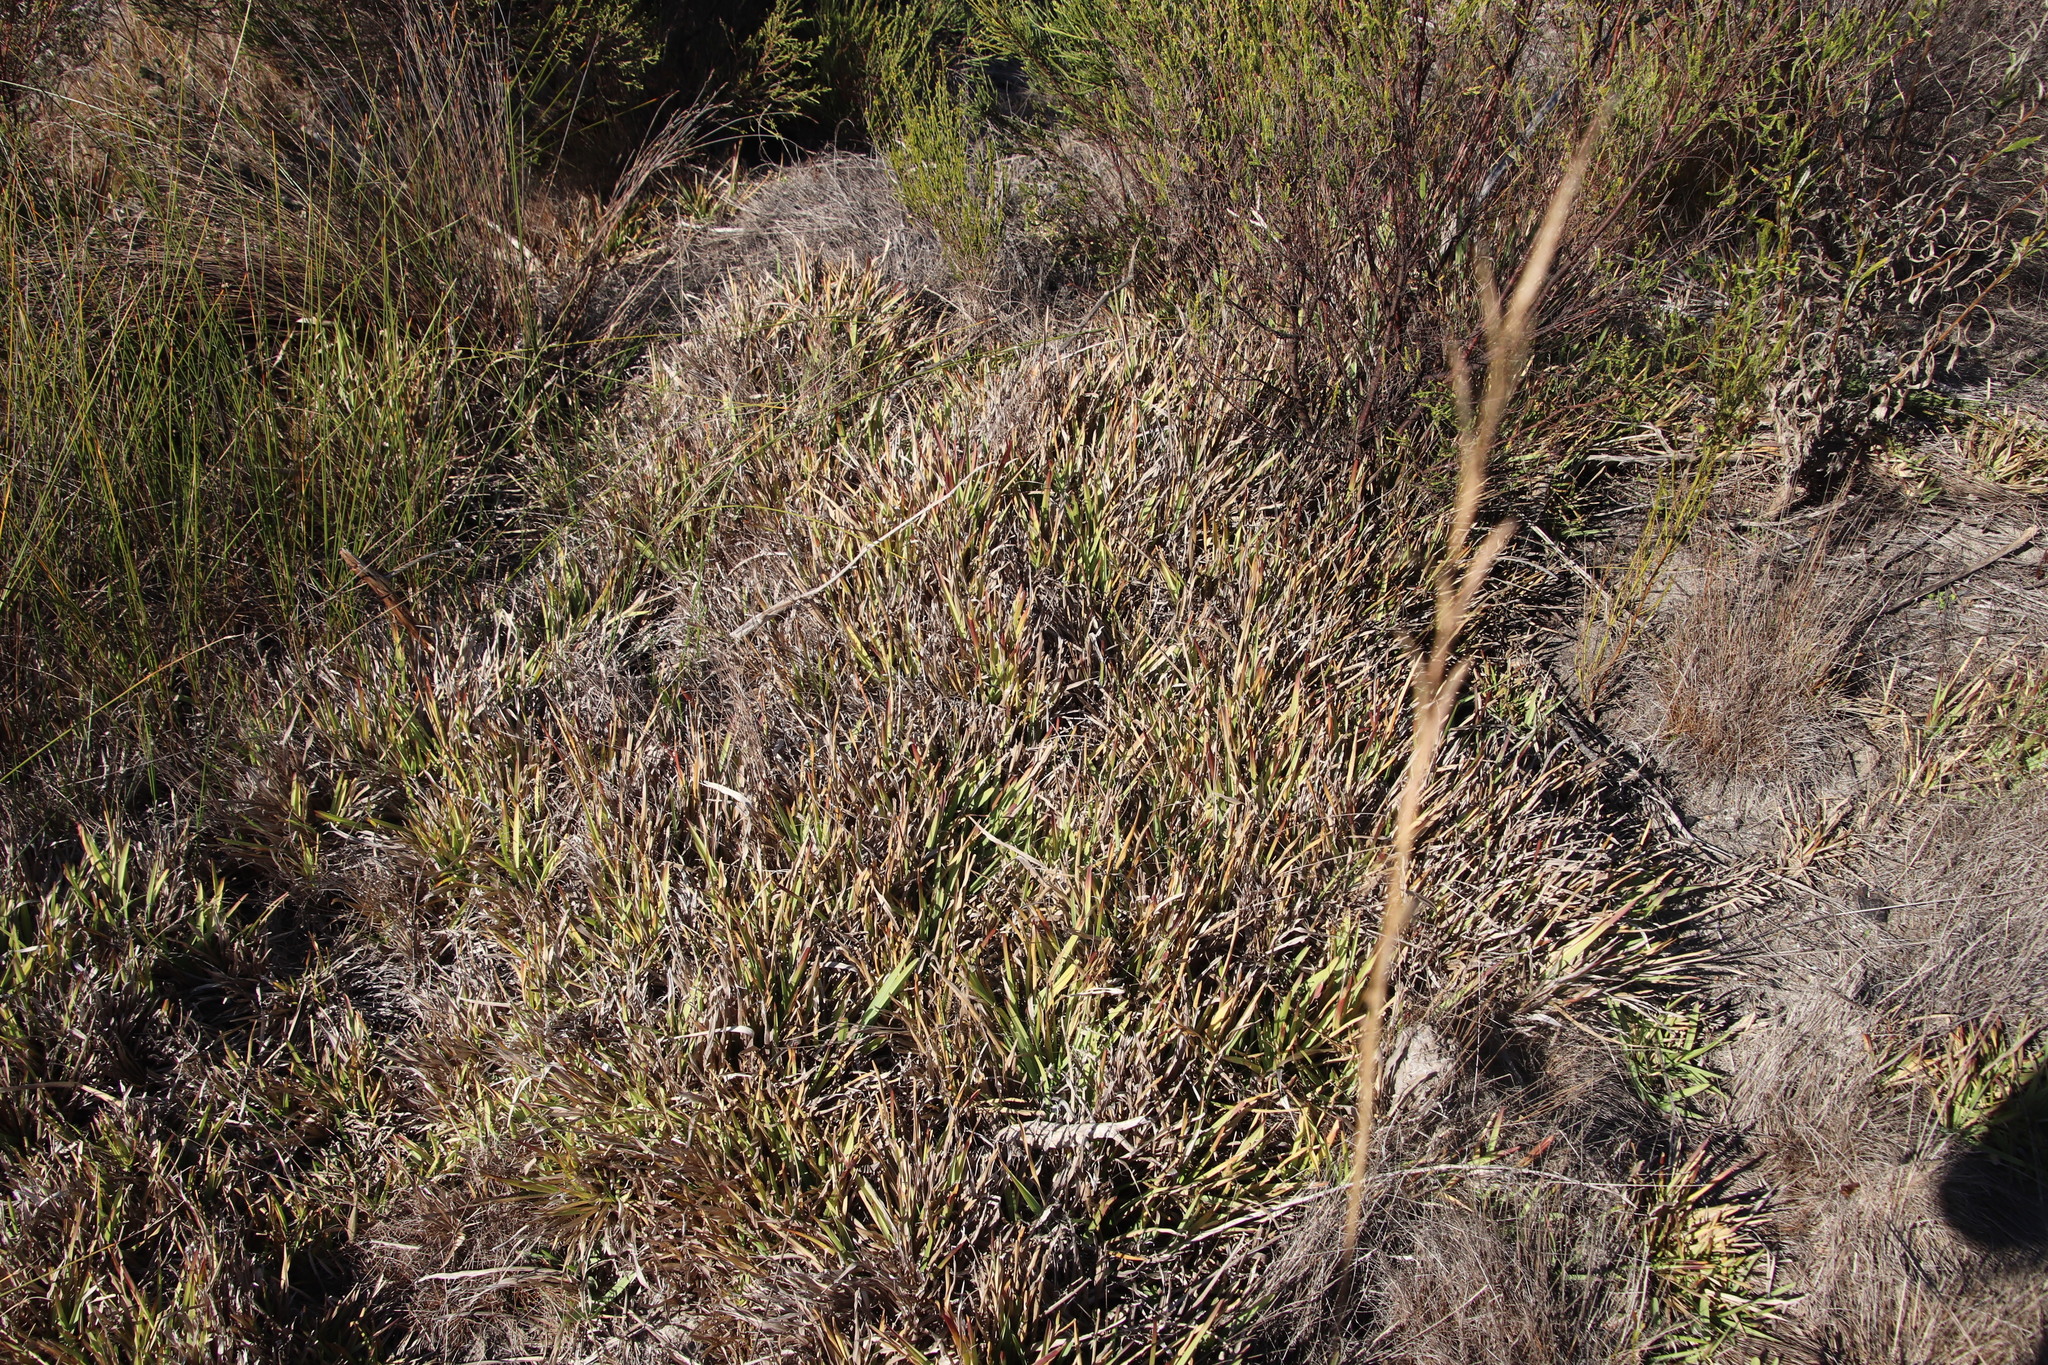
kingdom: Plantae
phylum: Tracheophyta
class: Liliopsida
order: Poales
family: Poaceae
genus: Stenotaphrum
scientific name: Stenotaphrum secundatum
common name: St. augustine grass
